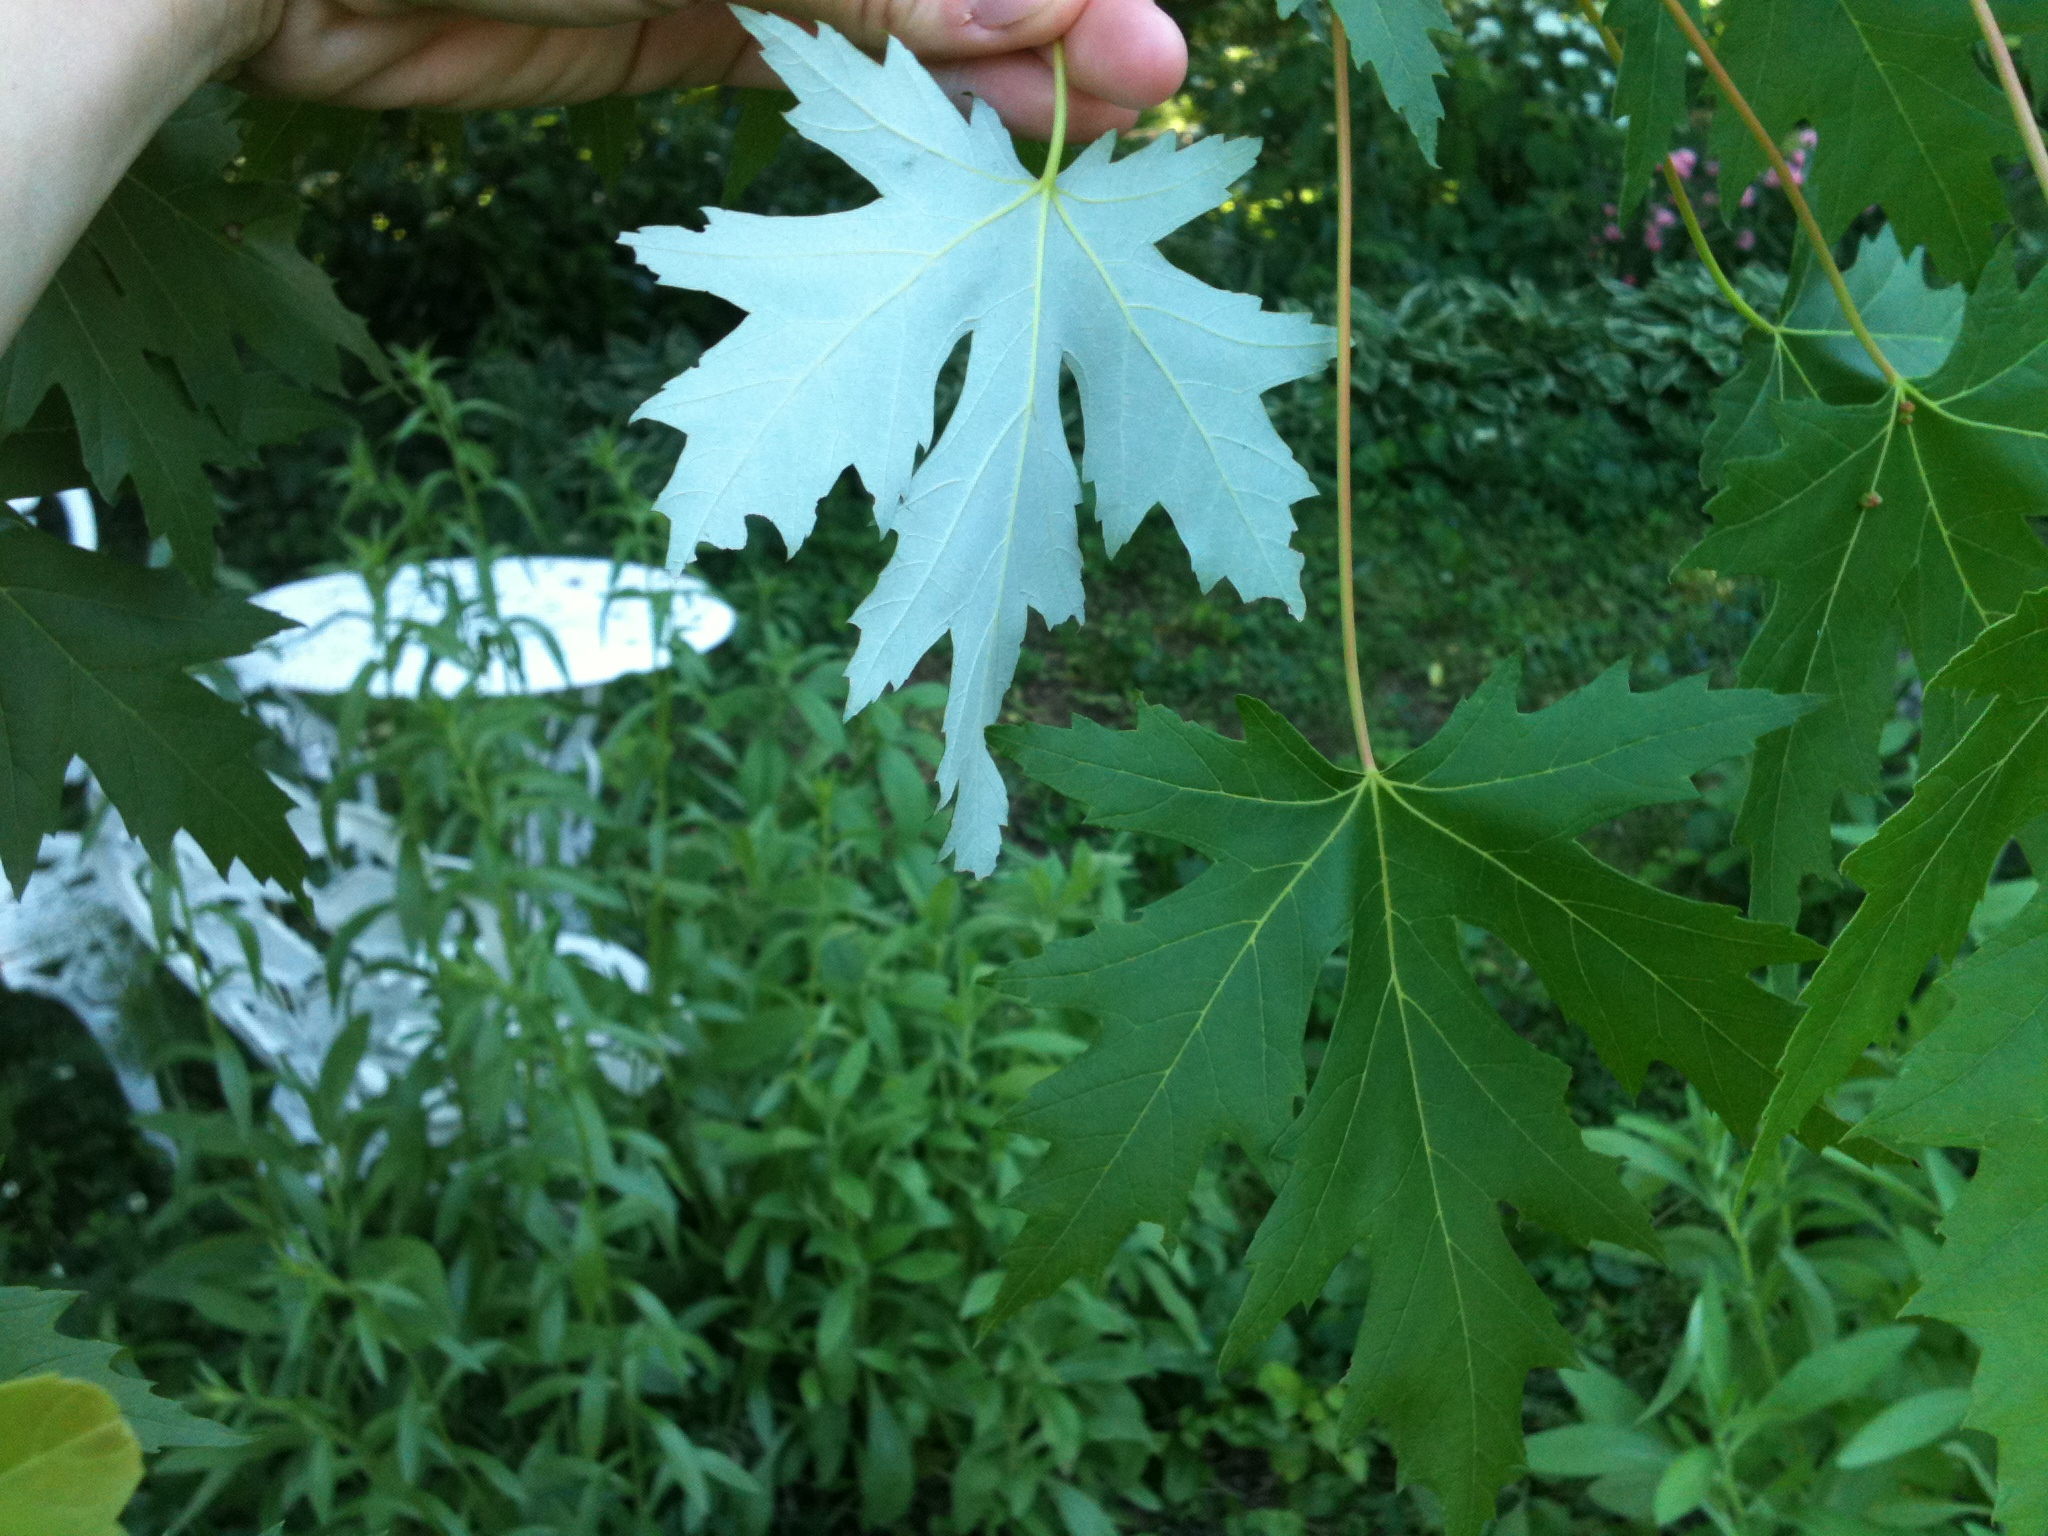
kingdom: Plantae
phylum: Tracheophyta
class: Magnoliopsida
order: Sapindales
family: Sapindaceae
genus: Acer
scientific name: Acer saccharinum
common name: Silver maple
